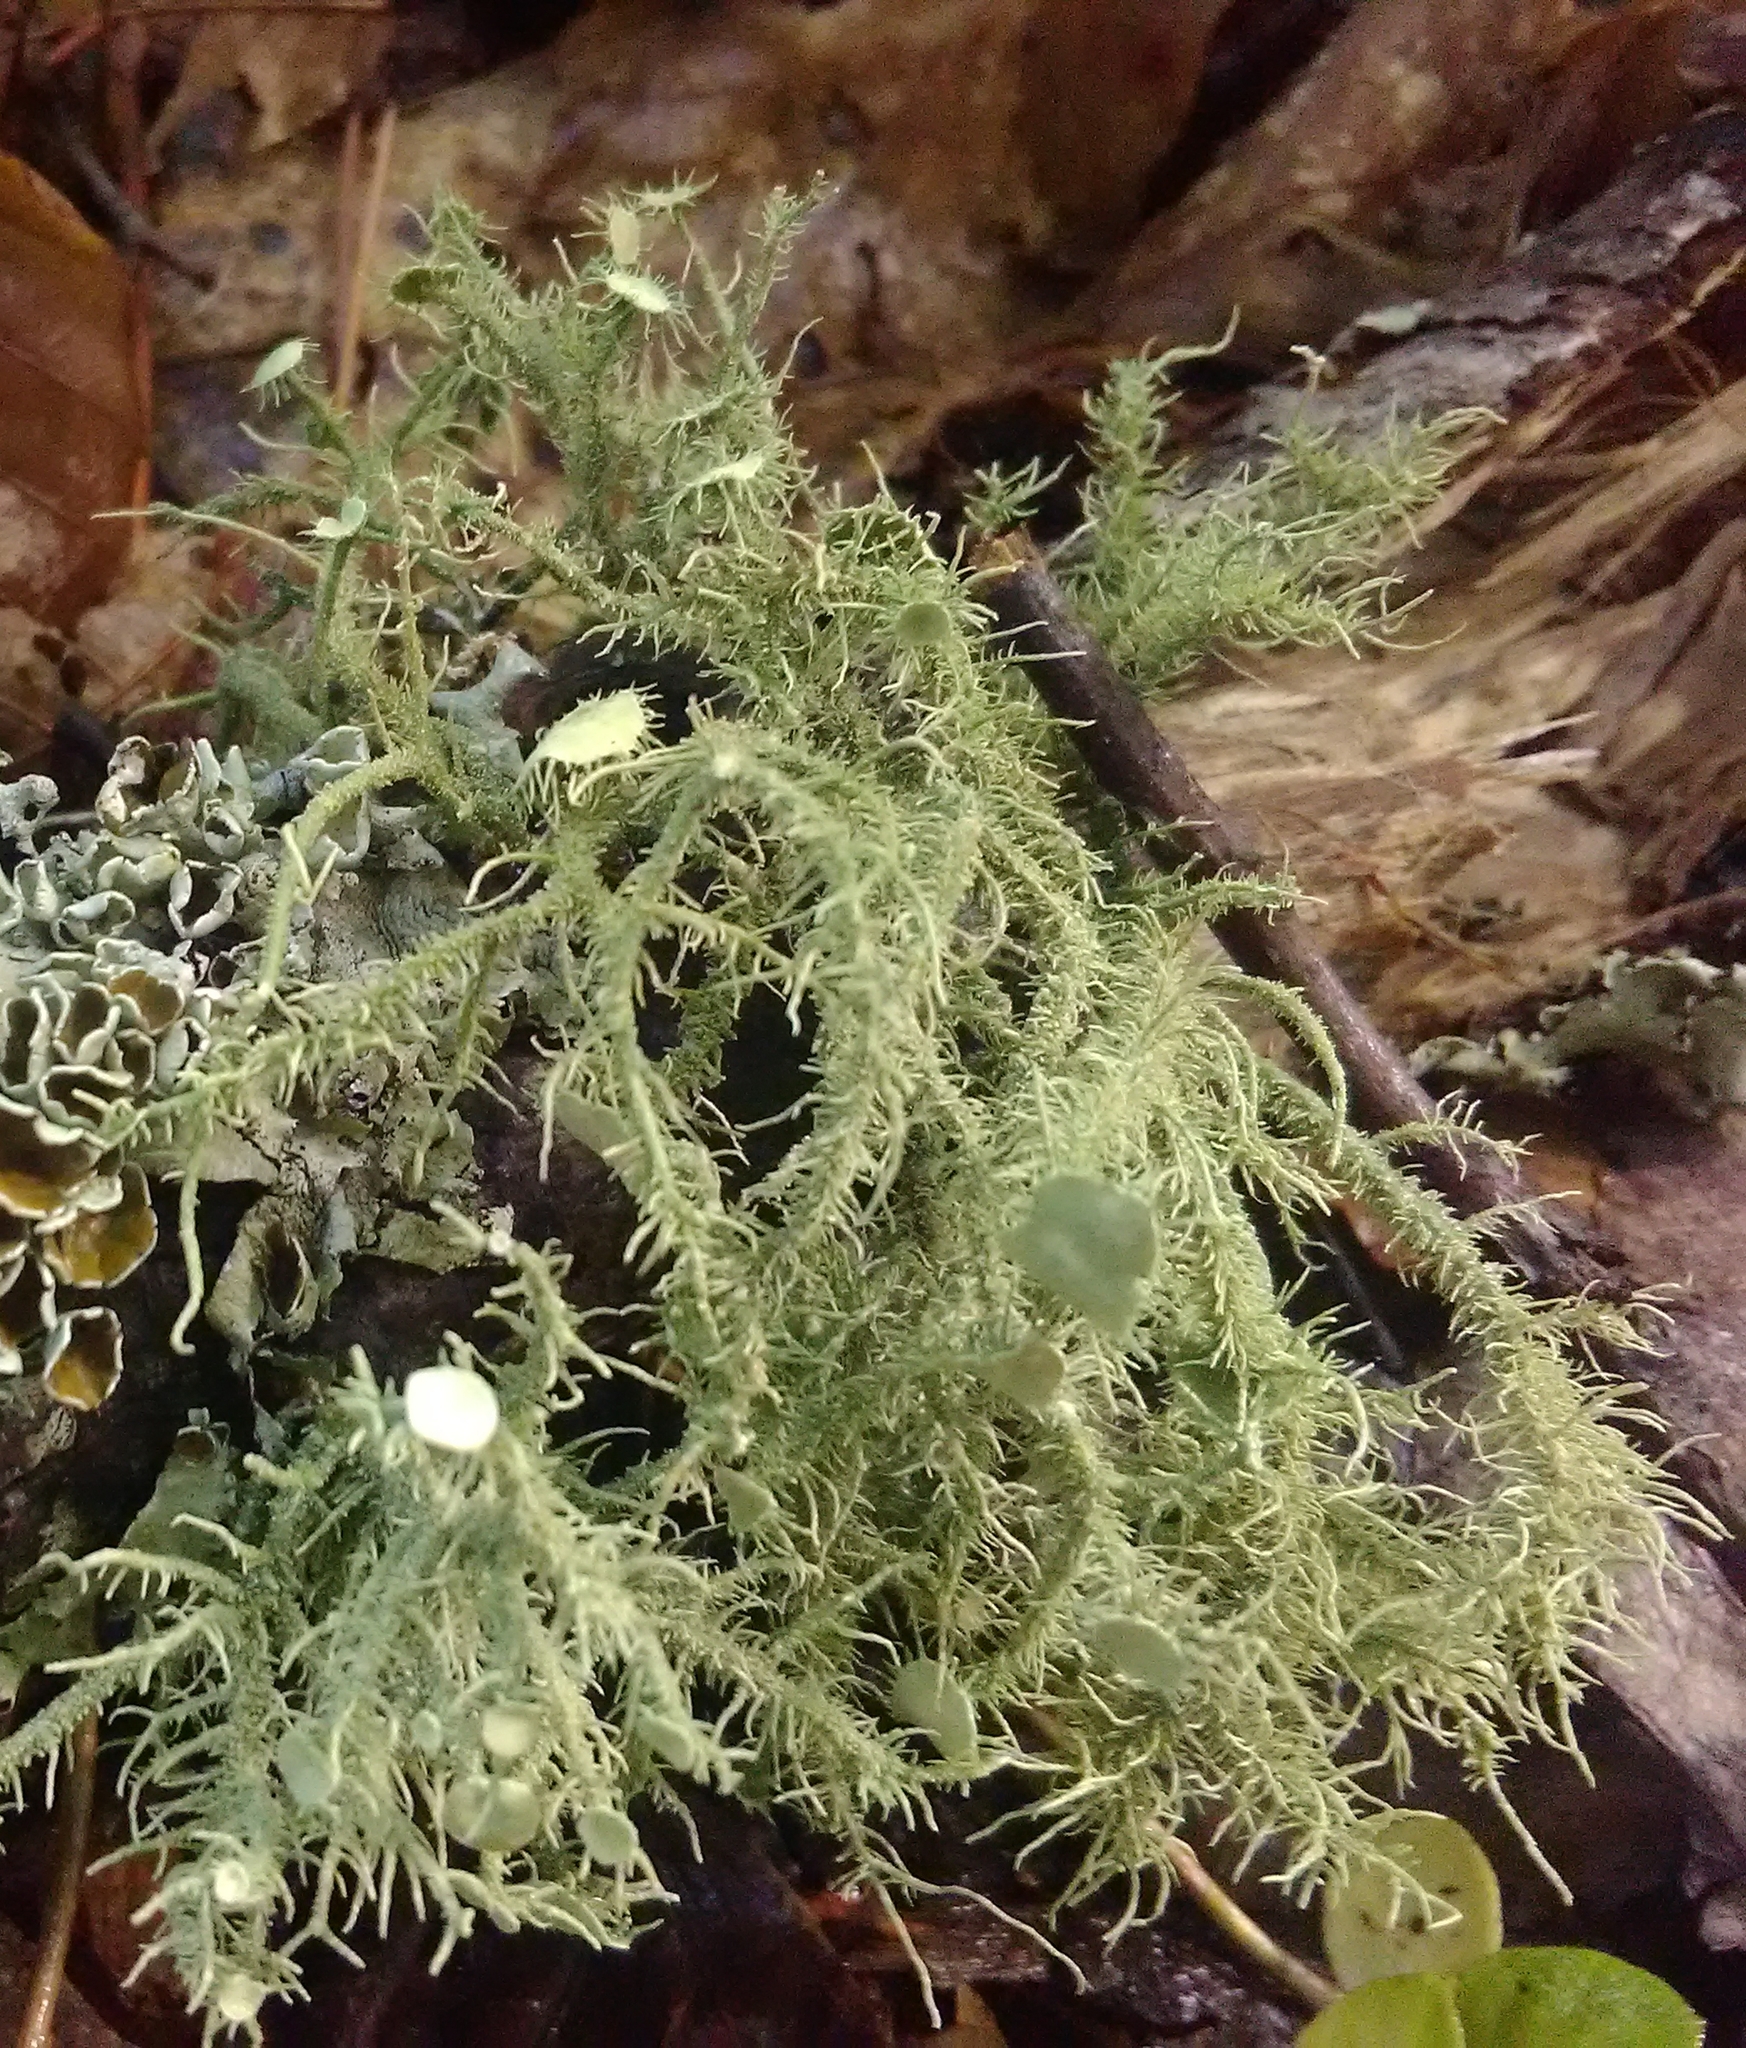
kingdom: Fungi
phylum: Ascomycota
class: Lecanoromycetes
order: Lecanorales
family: Parmeliaceae
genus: Usnea
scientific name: Usnea strigosa
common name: Bushy beard lichen
